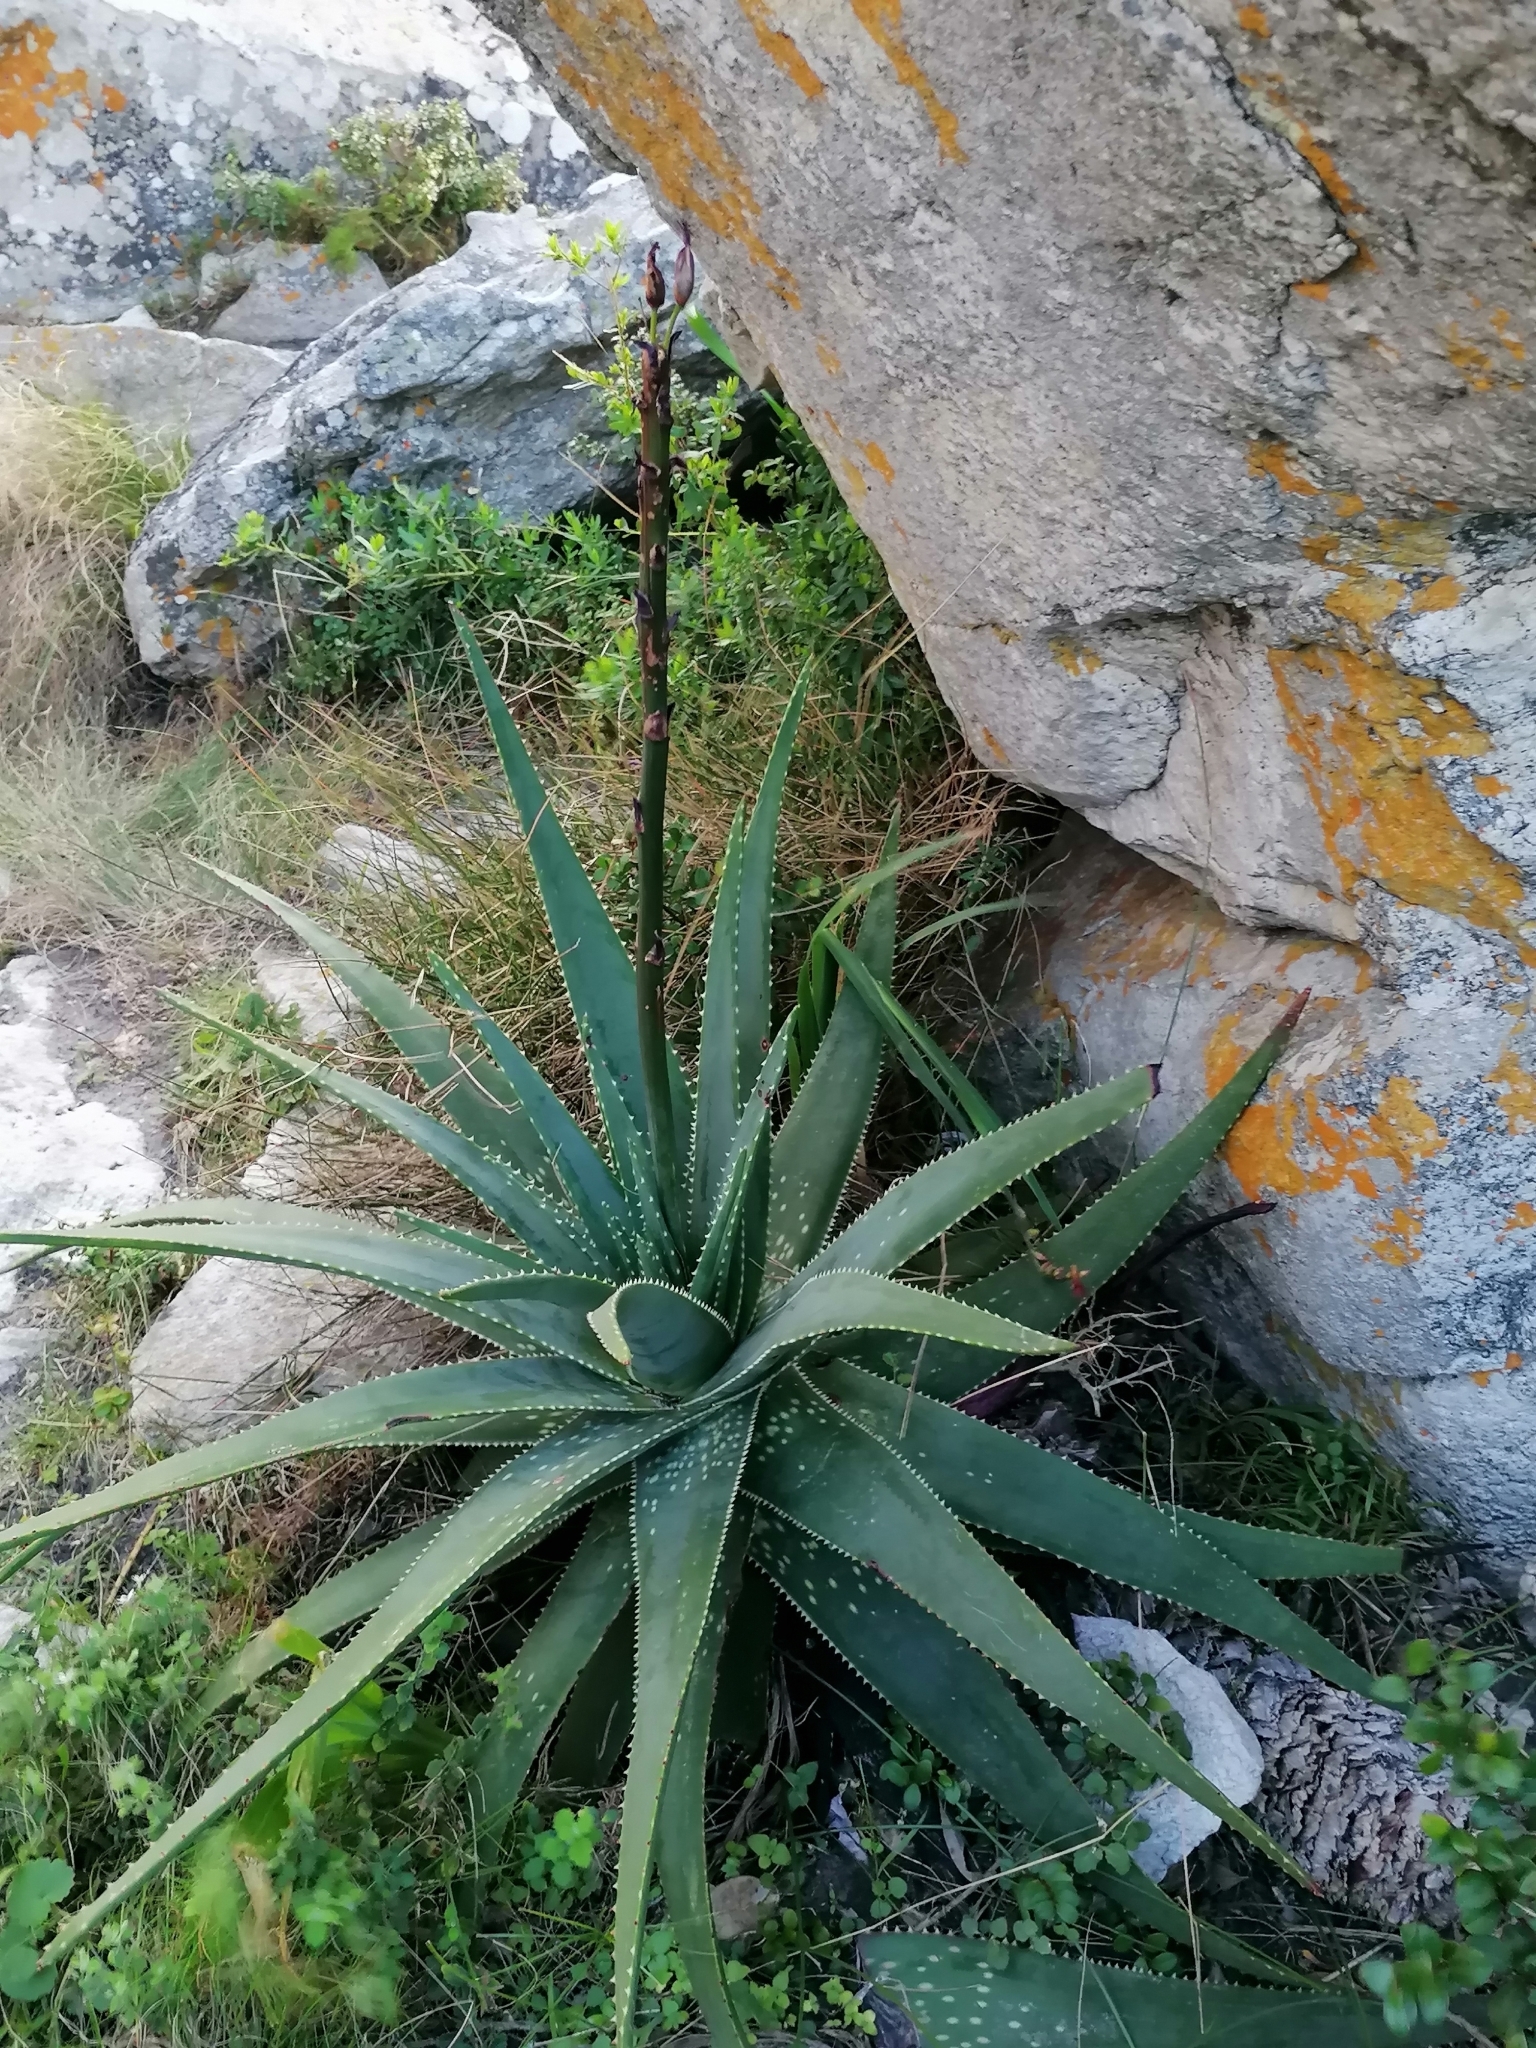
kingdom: Plantae
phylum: Tracheophyta
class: Liliopsida
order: Asparagales
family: Asphodelaceae
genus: Aloe
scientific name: Aloe succotrina
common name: Bombay aloe
